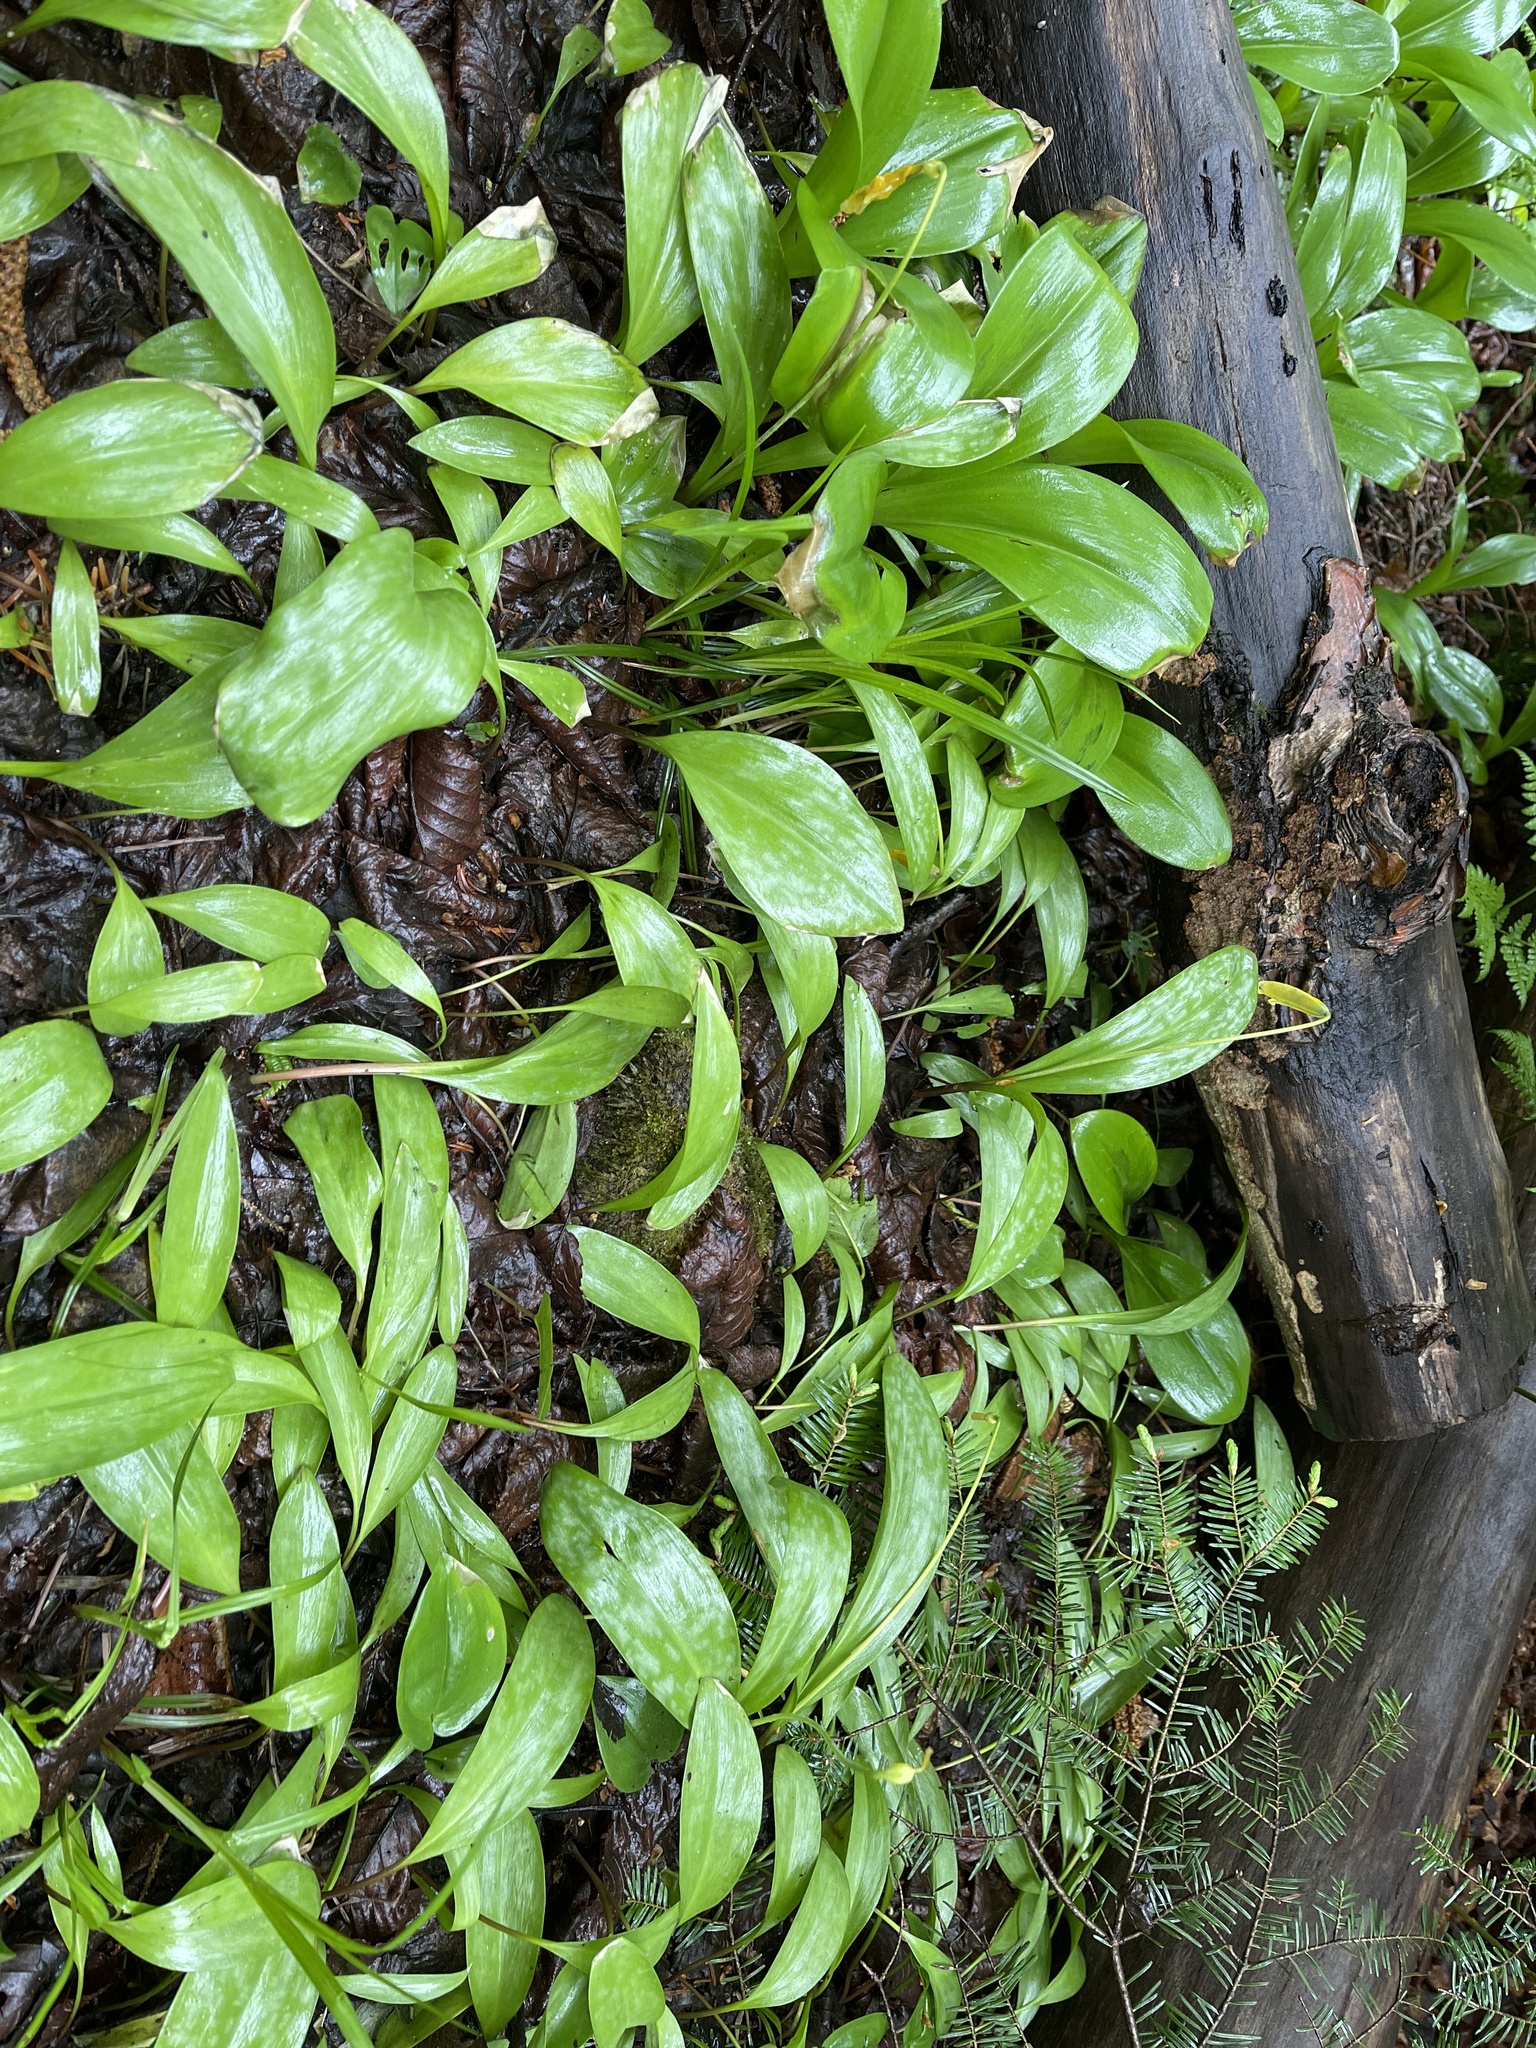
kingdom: Plantae
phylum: Tracheophyta
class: Liliopsida
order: Liliales
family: Liliaceae
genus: Erythronium
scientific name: Erythronium americanum
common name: Yellow adder's-tongue
